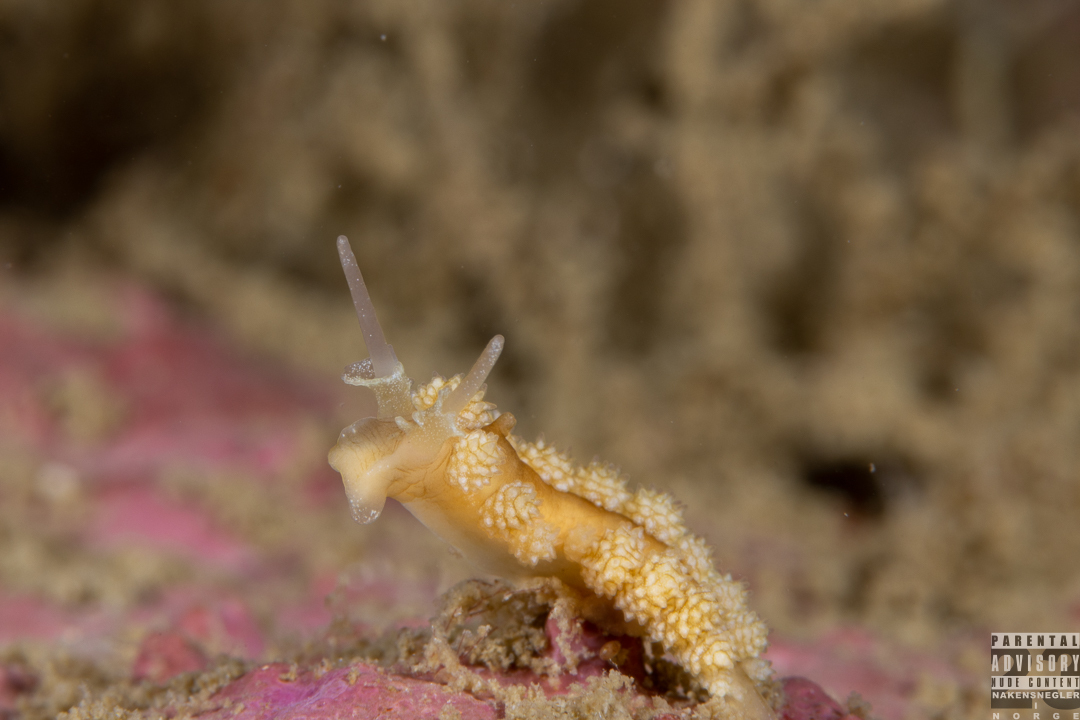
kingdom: Animalia
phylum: Mollusca
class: Gastropoda
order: Nudibranchia
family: Dotidae
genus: Doto
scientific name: Doto fragilis
